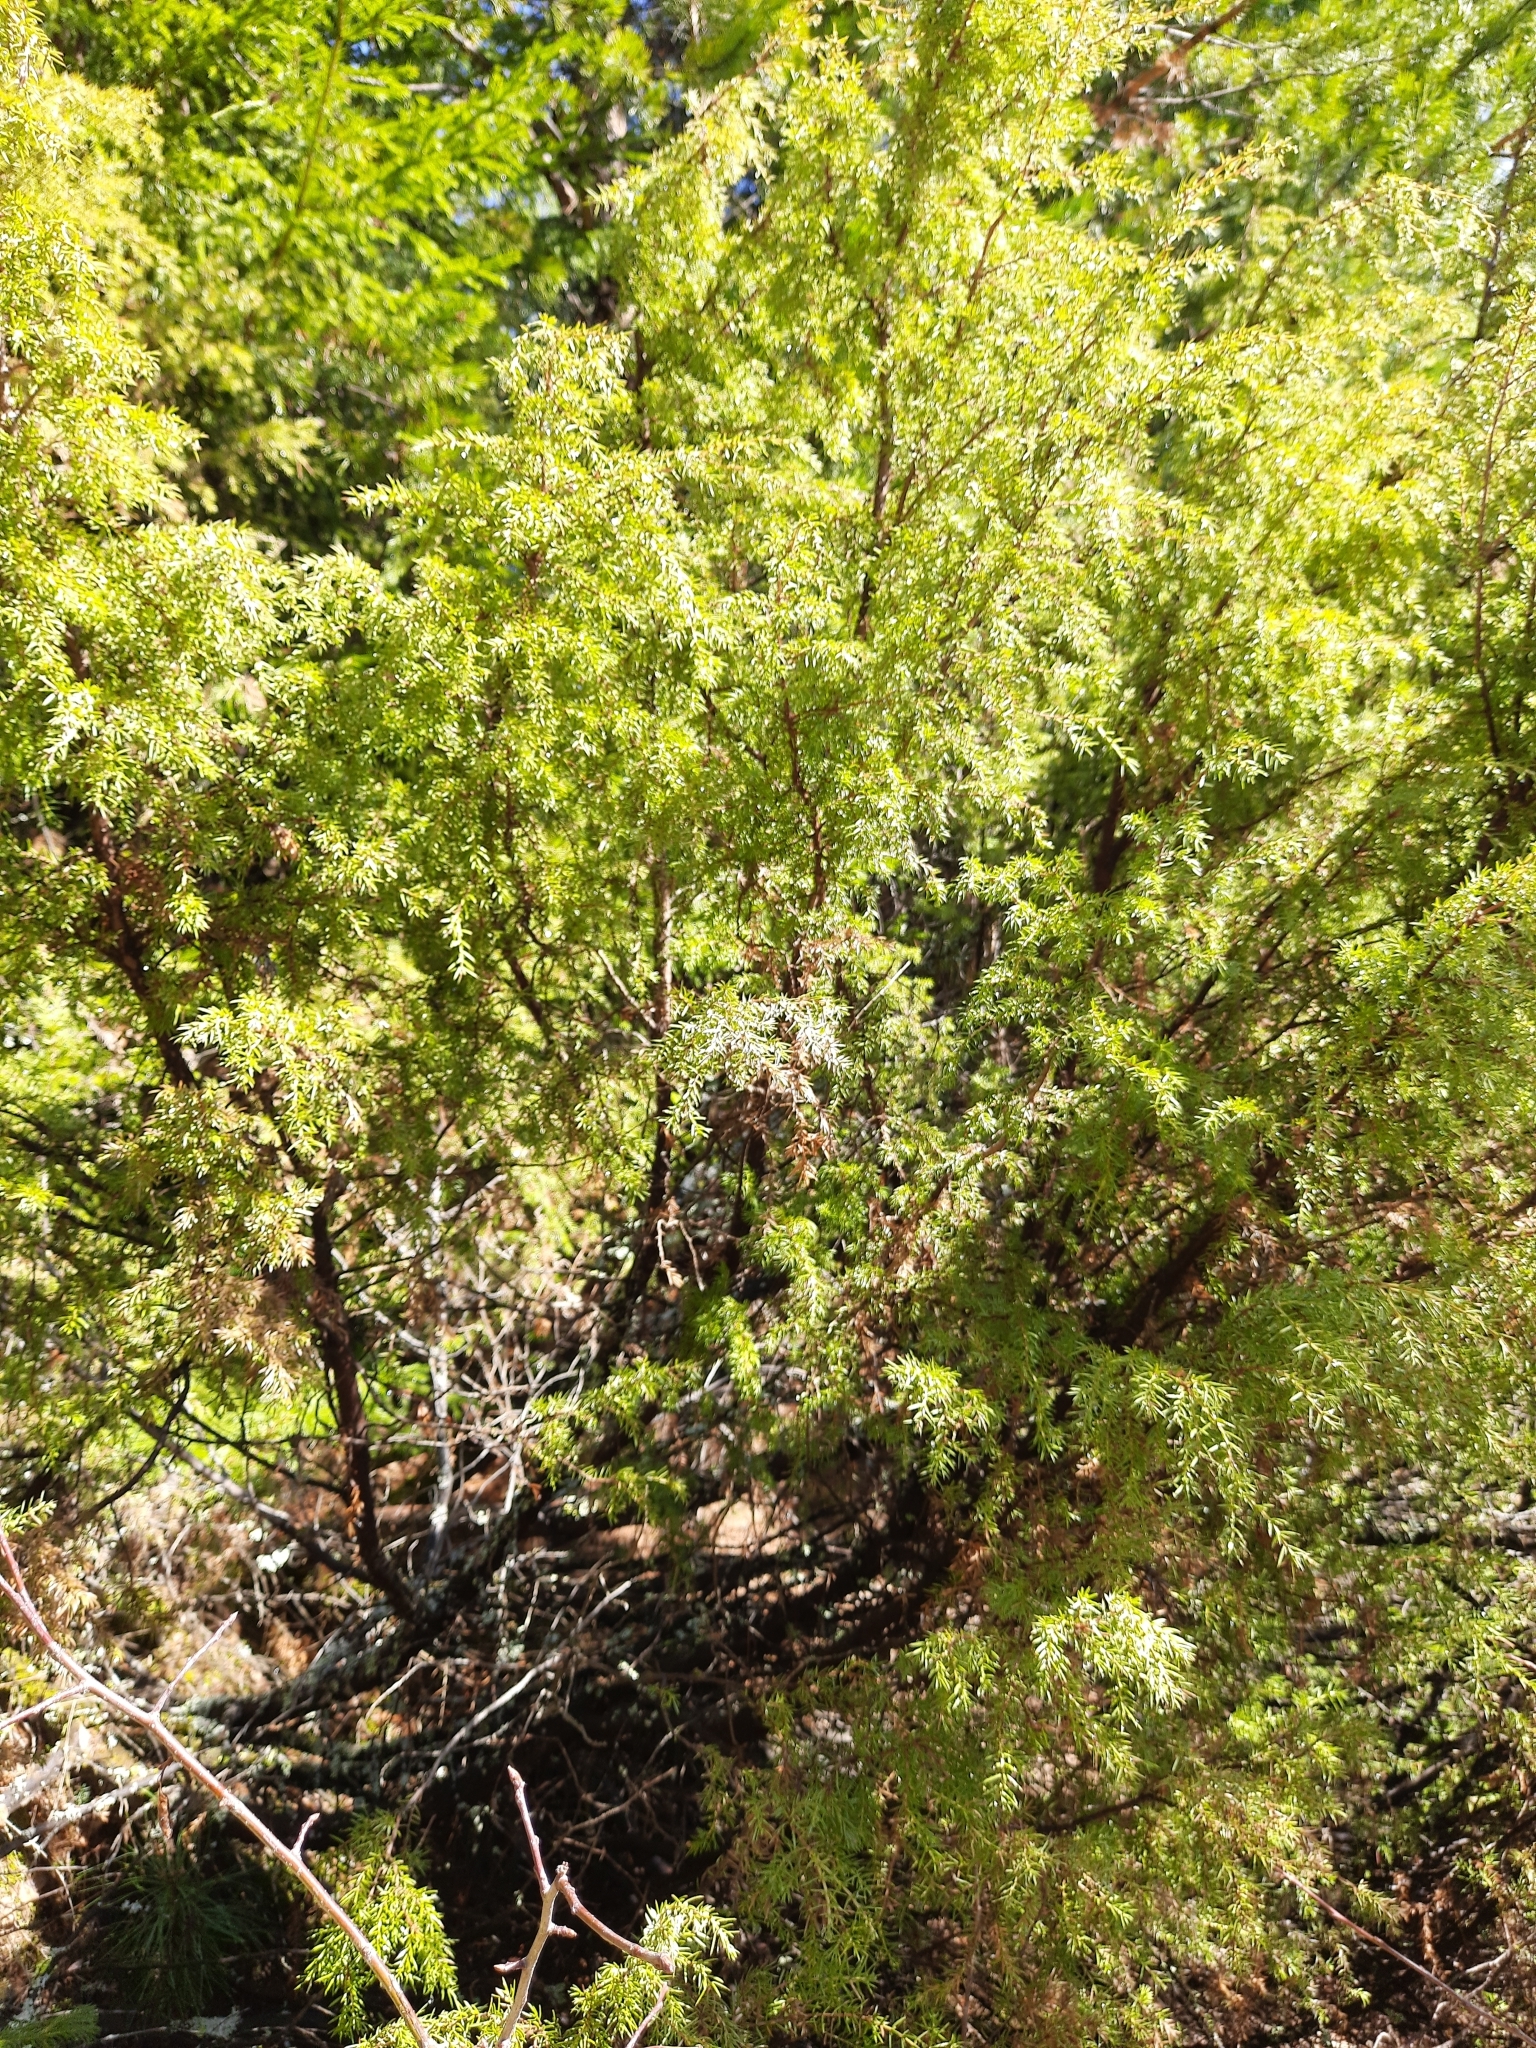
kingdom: Plantae
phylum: Tracheophyta
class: Pinopsida
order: Pinales
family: Cupressaceae
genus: Juniperus
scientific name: Juniperus communis
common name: Common juniper
